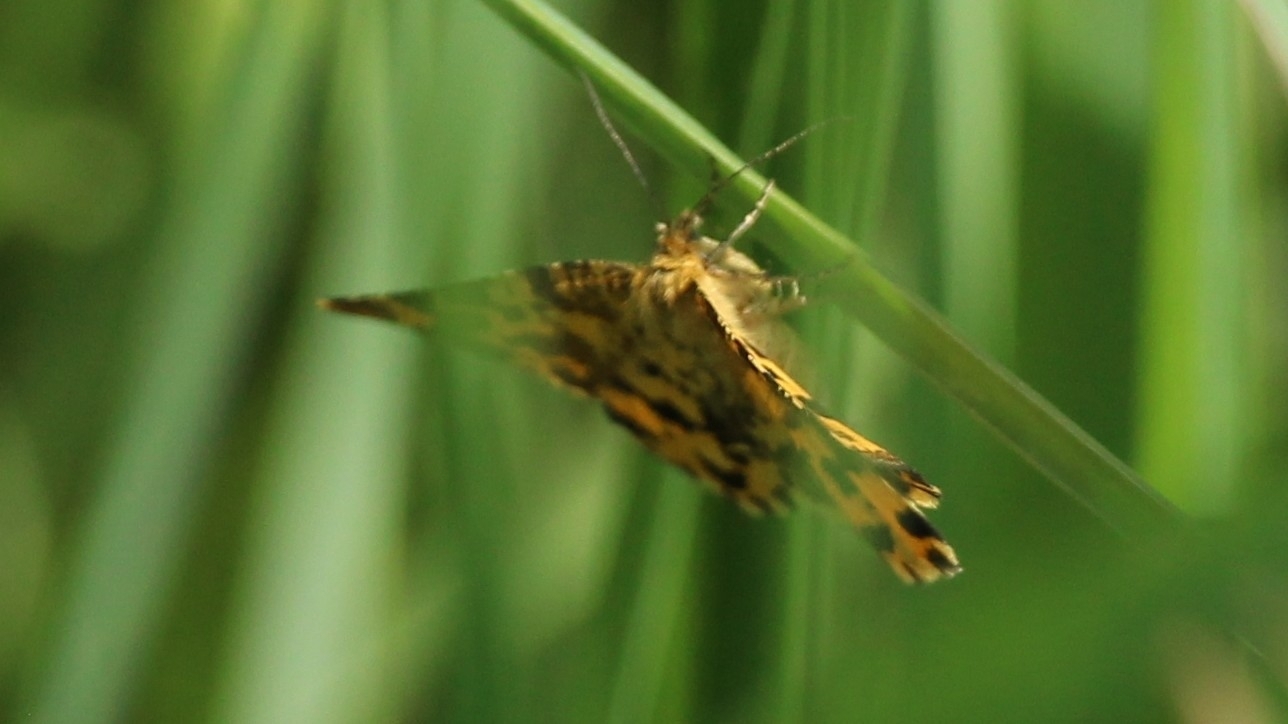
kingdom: Animalia
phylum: Arthropoda
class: Insecta
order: Lepidoptera
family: Geometridae
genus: Pseudopanthera
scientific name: Pseudopanthera macularia
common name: Speckled yellow
